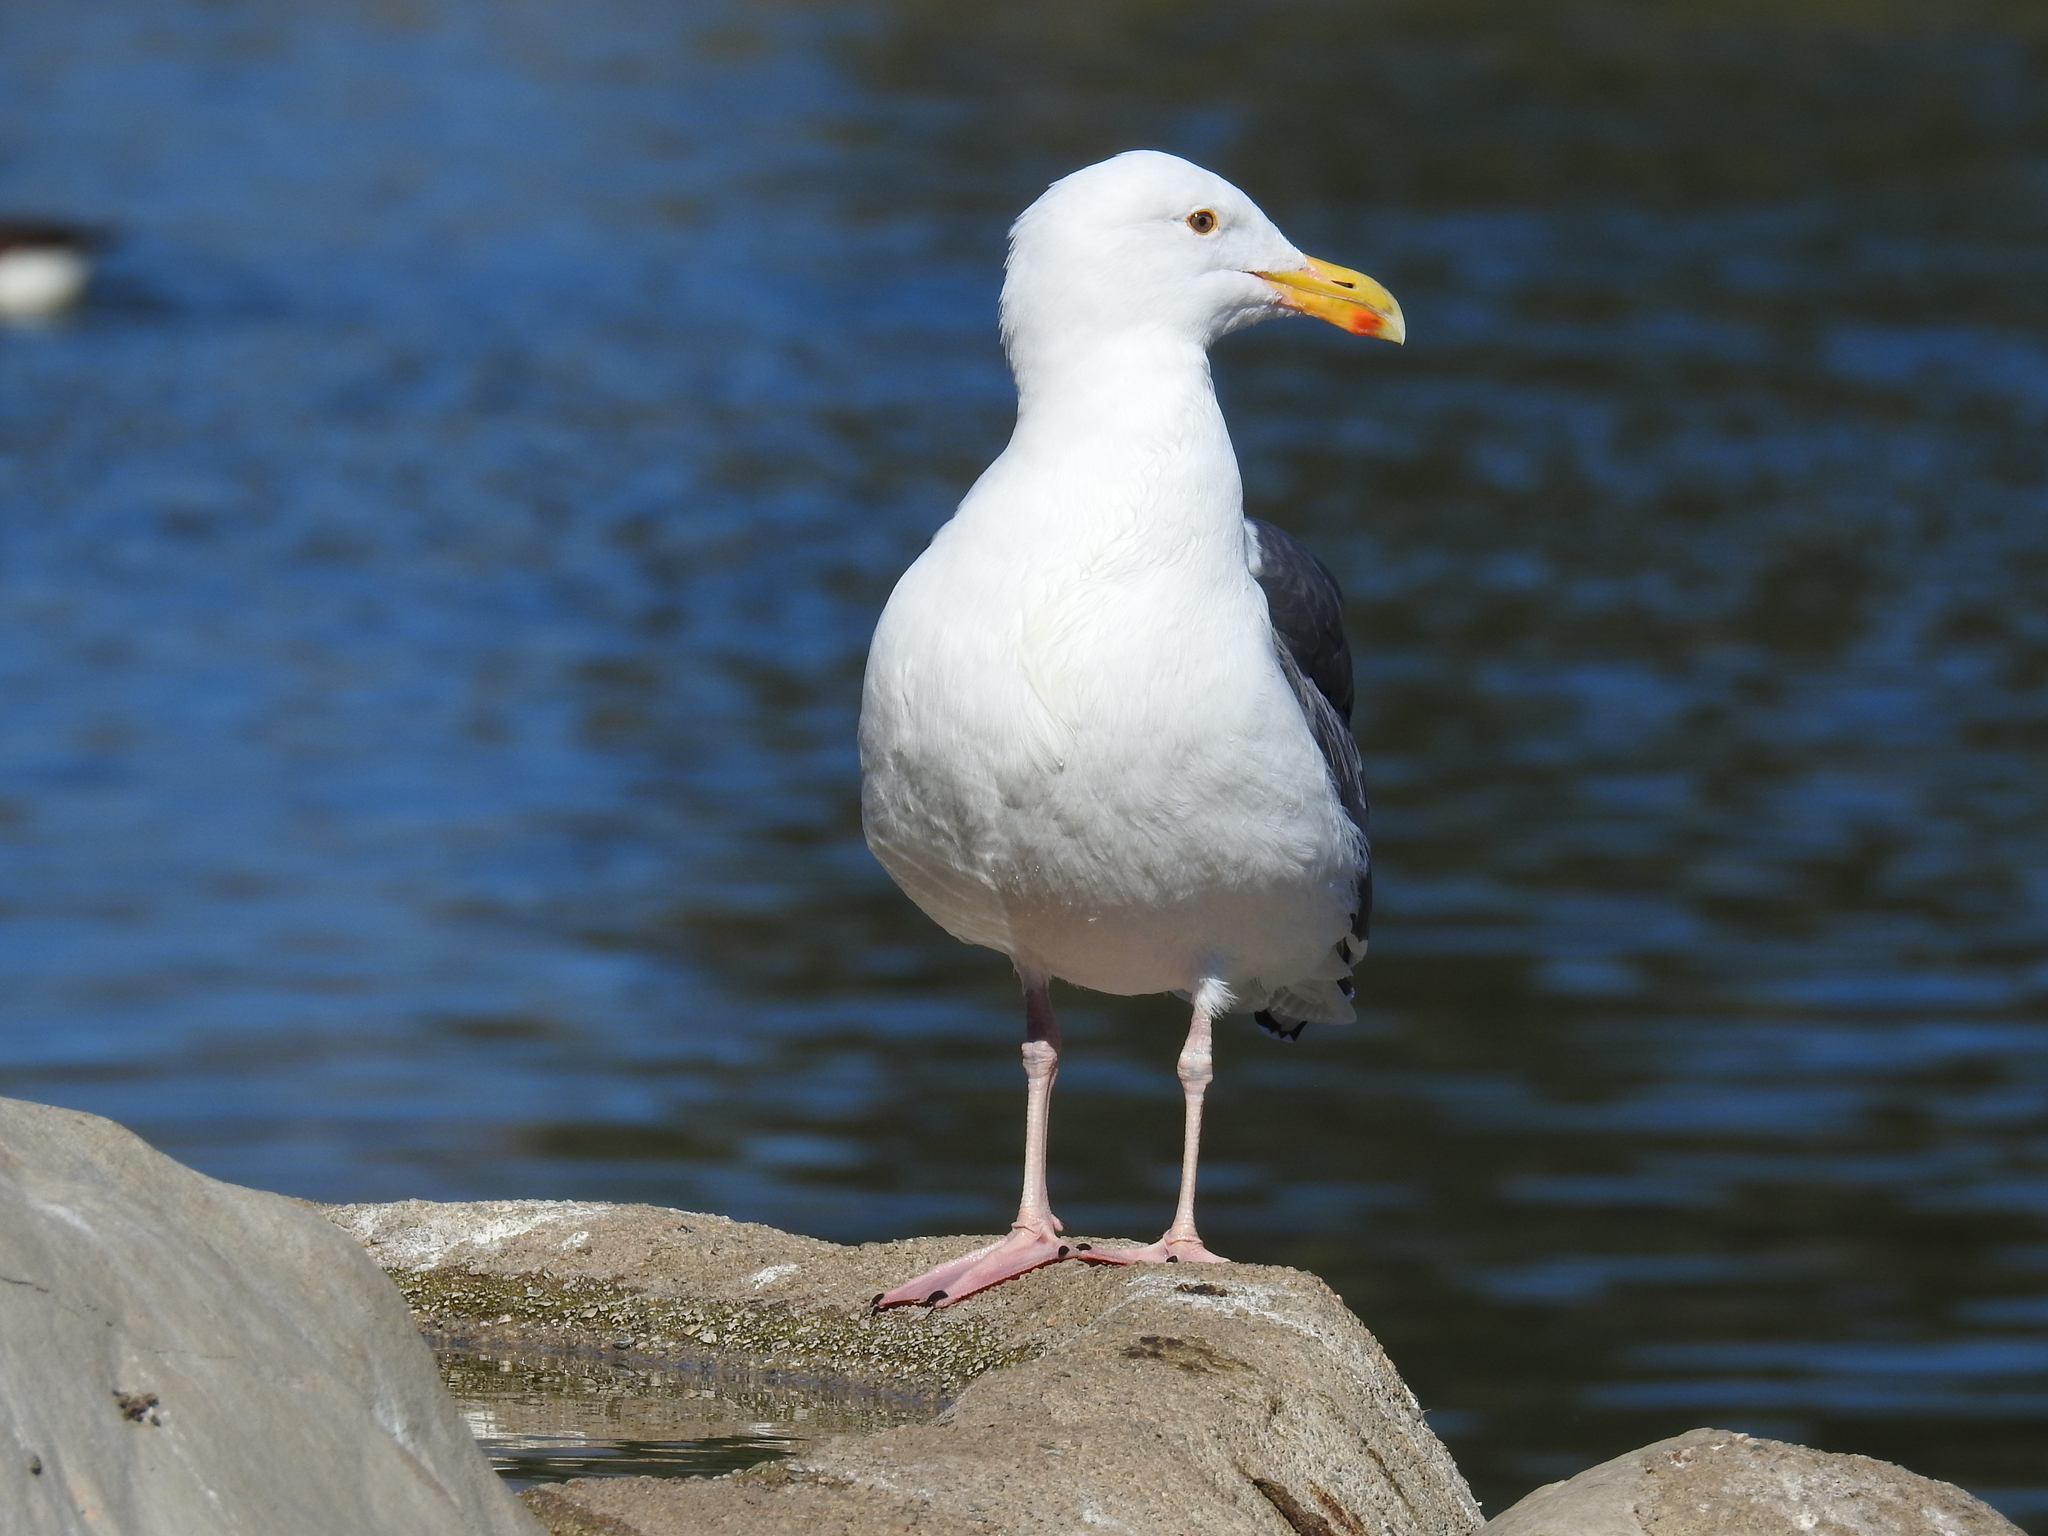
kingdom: Animalia
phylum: Chordata
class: Aves
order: Charadriiformes
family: Laridae
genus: Larus
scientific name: Larus occidentalis
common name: Western gull
